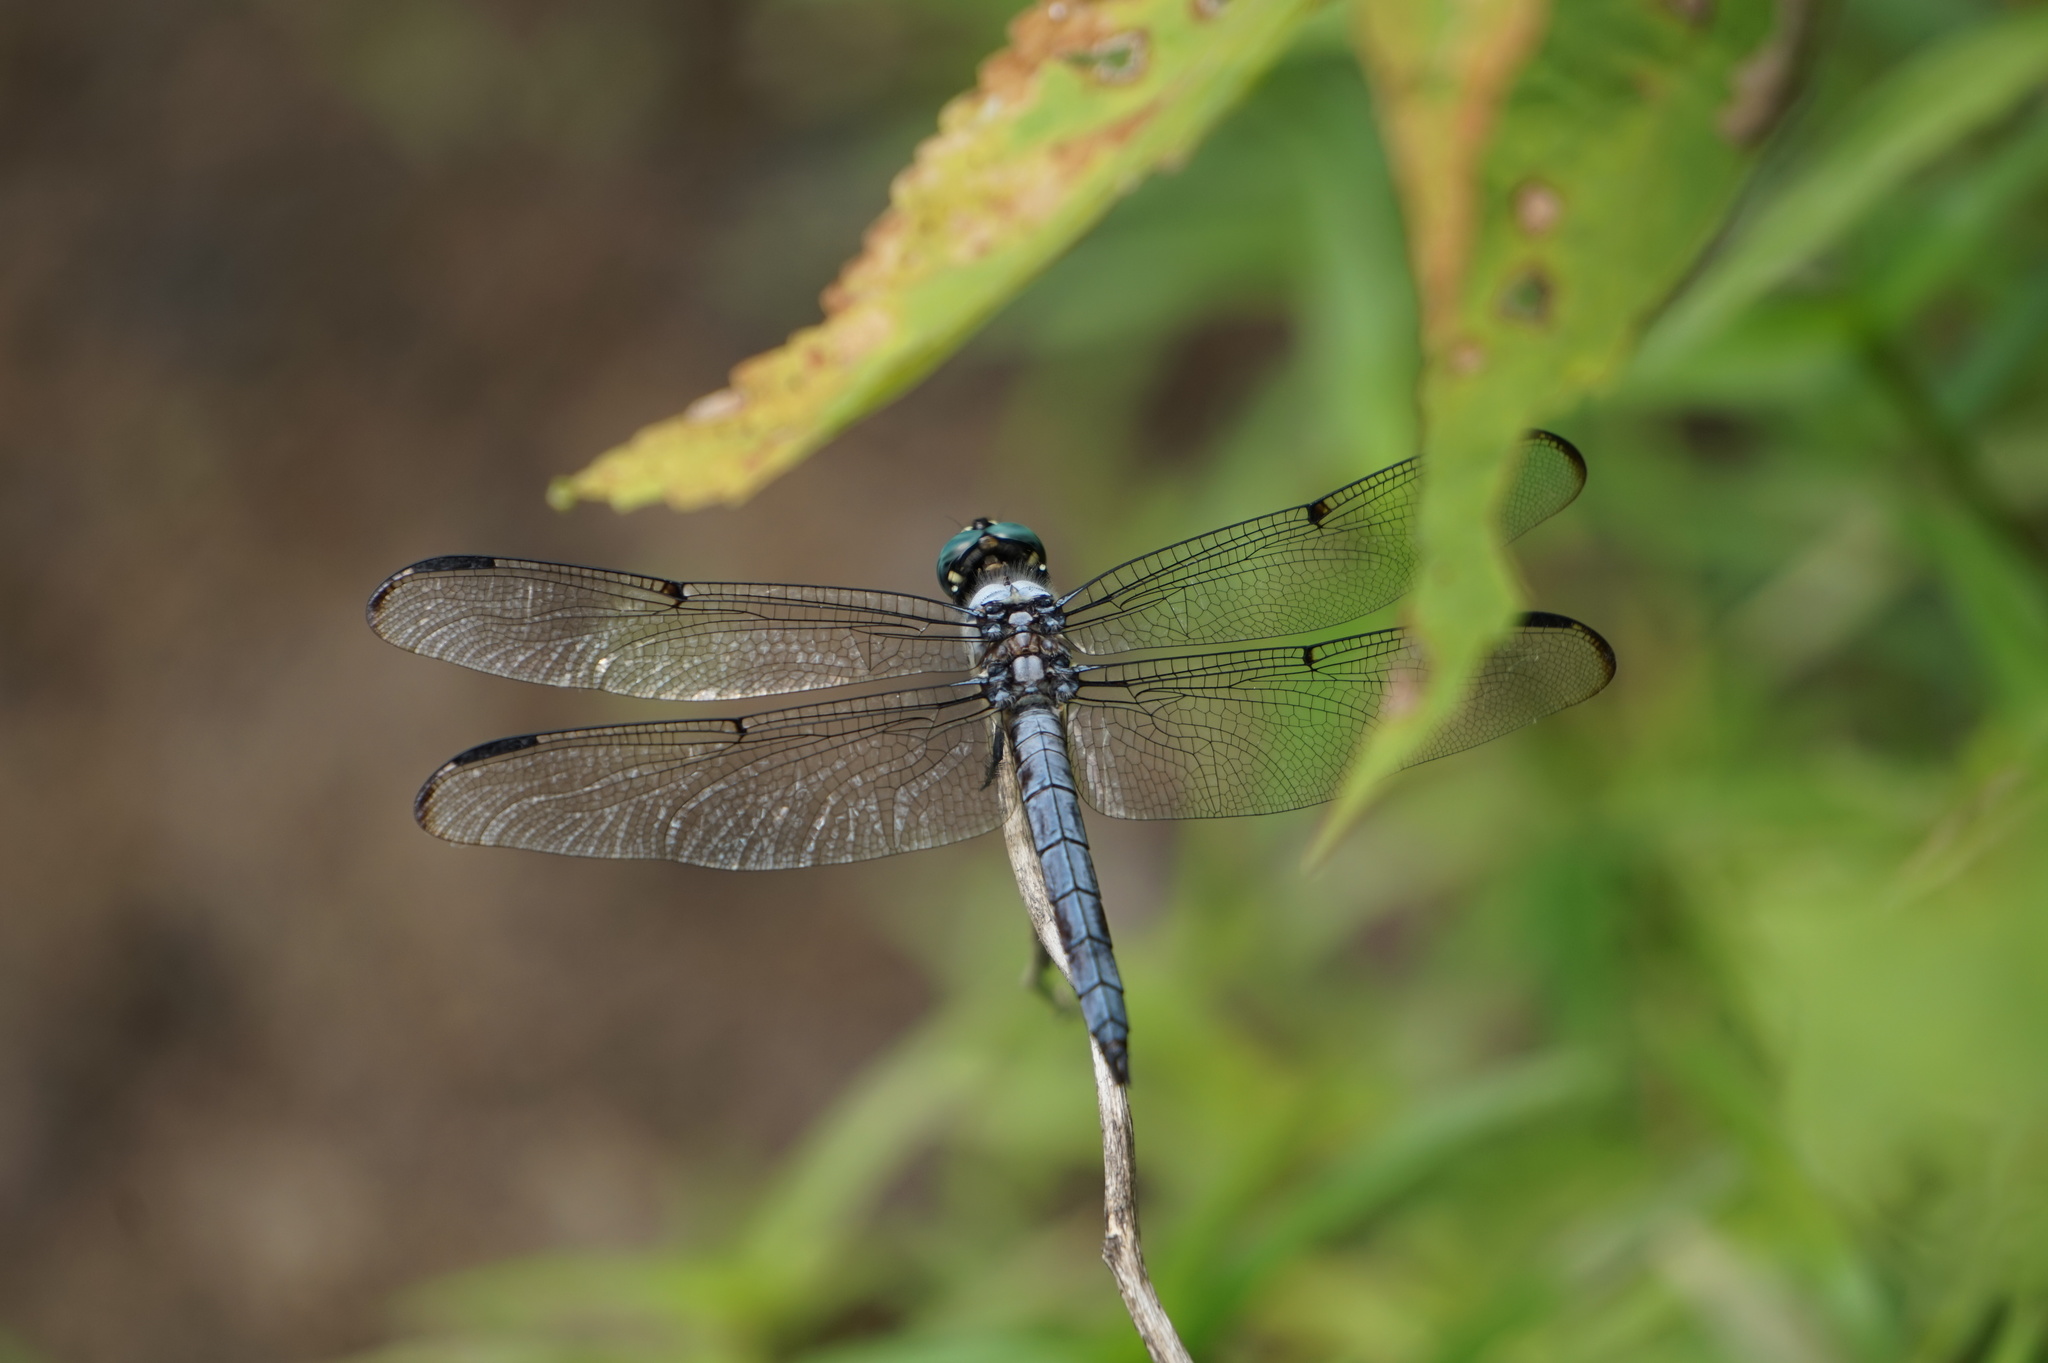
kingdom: Animalia
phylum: Arthropoda
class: Insecta
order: Odonata
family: Libellulidae
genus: Libellula
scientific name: Libellula vibrans
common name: Great blue skimmer
